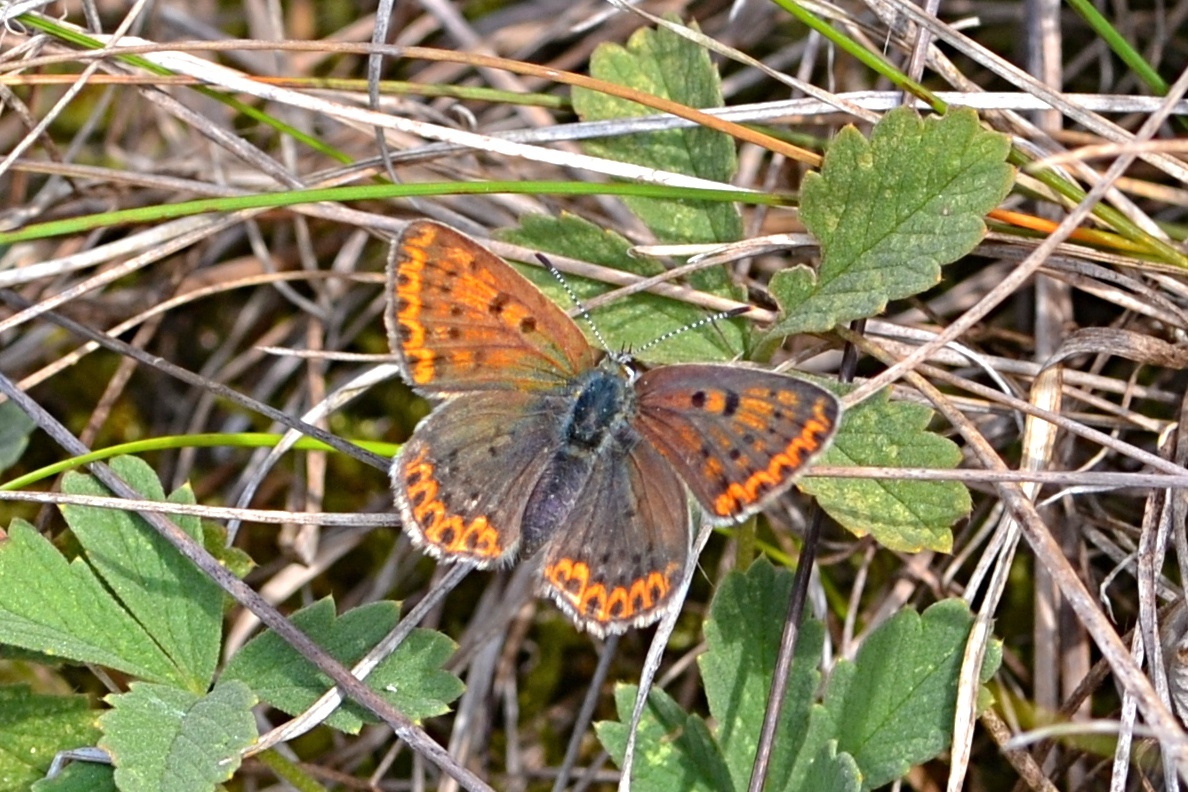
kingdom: Animalia
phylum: Arthropoda
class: Insecta
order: Lepidoptera
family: Lycaenidae
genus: Loweia
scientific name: Loweia tityrus
